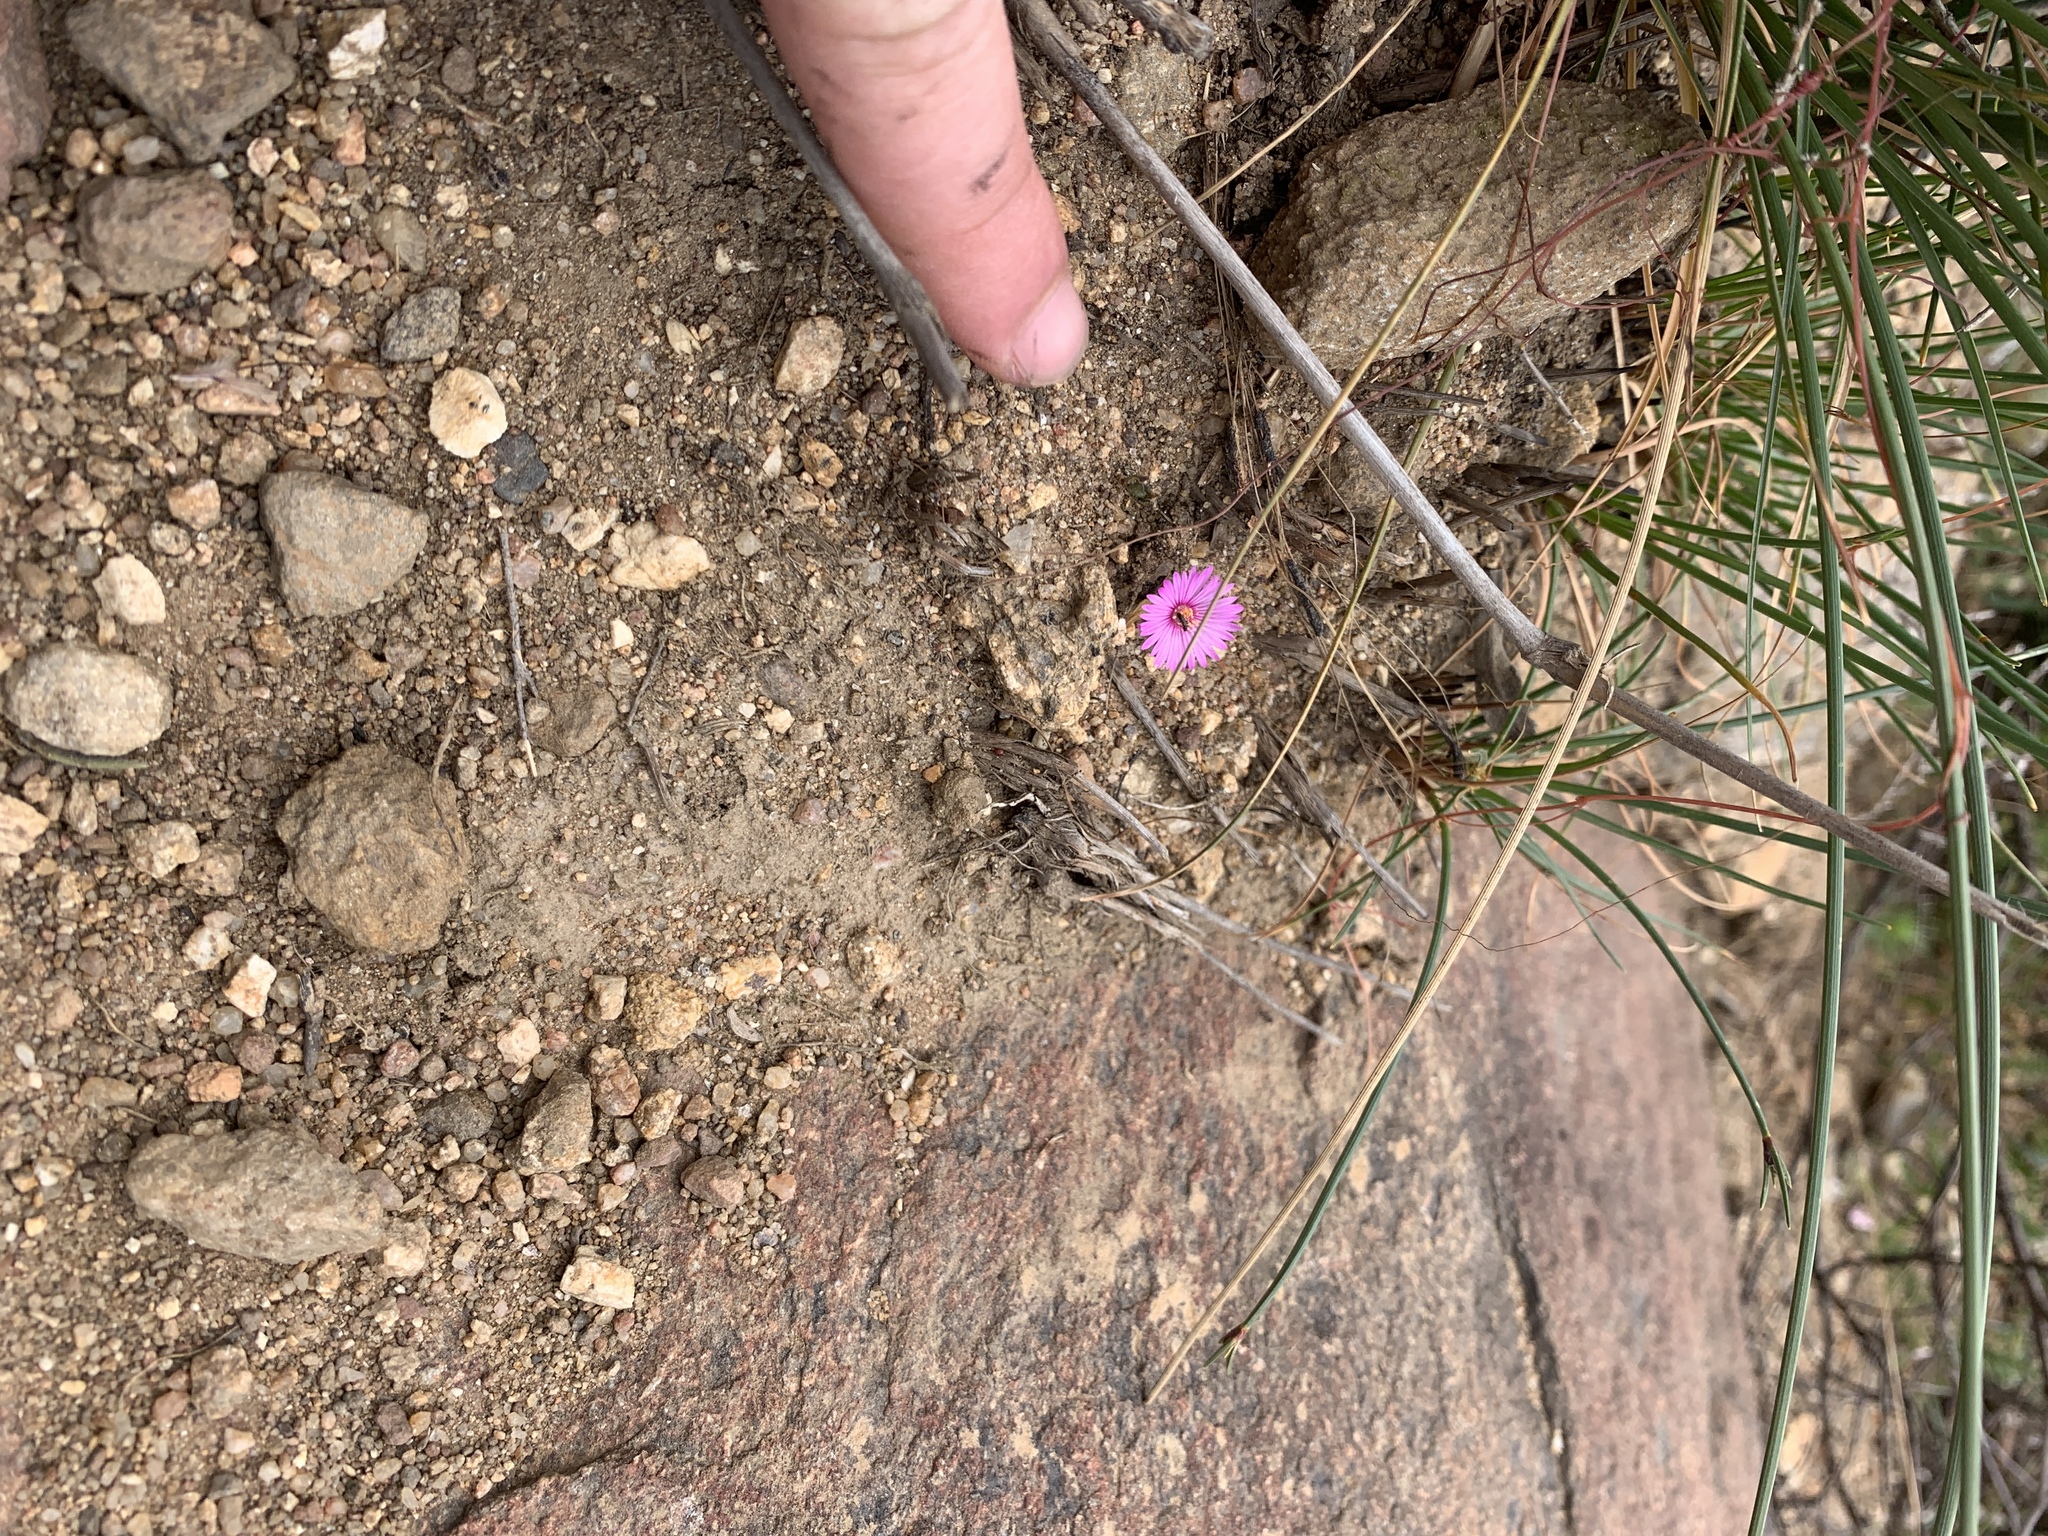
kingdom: Plantae
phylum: Tracheophyta
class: Magnoliopsida
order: Caryophyllales
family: Aizoaceae
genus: Cleretum
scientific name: Cleretum bellidiforme
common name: Livingstone daisy
